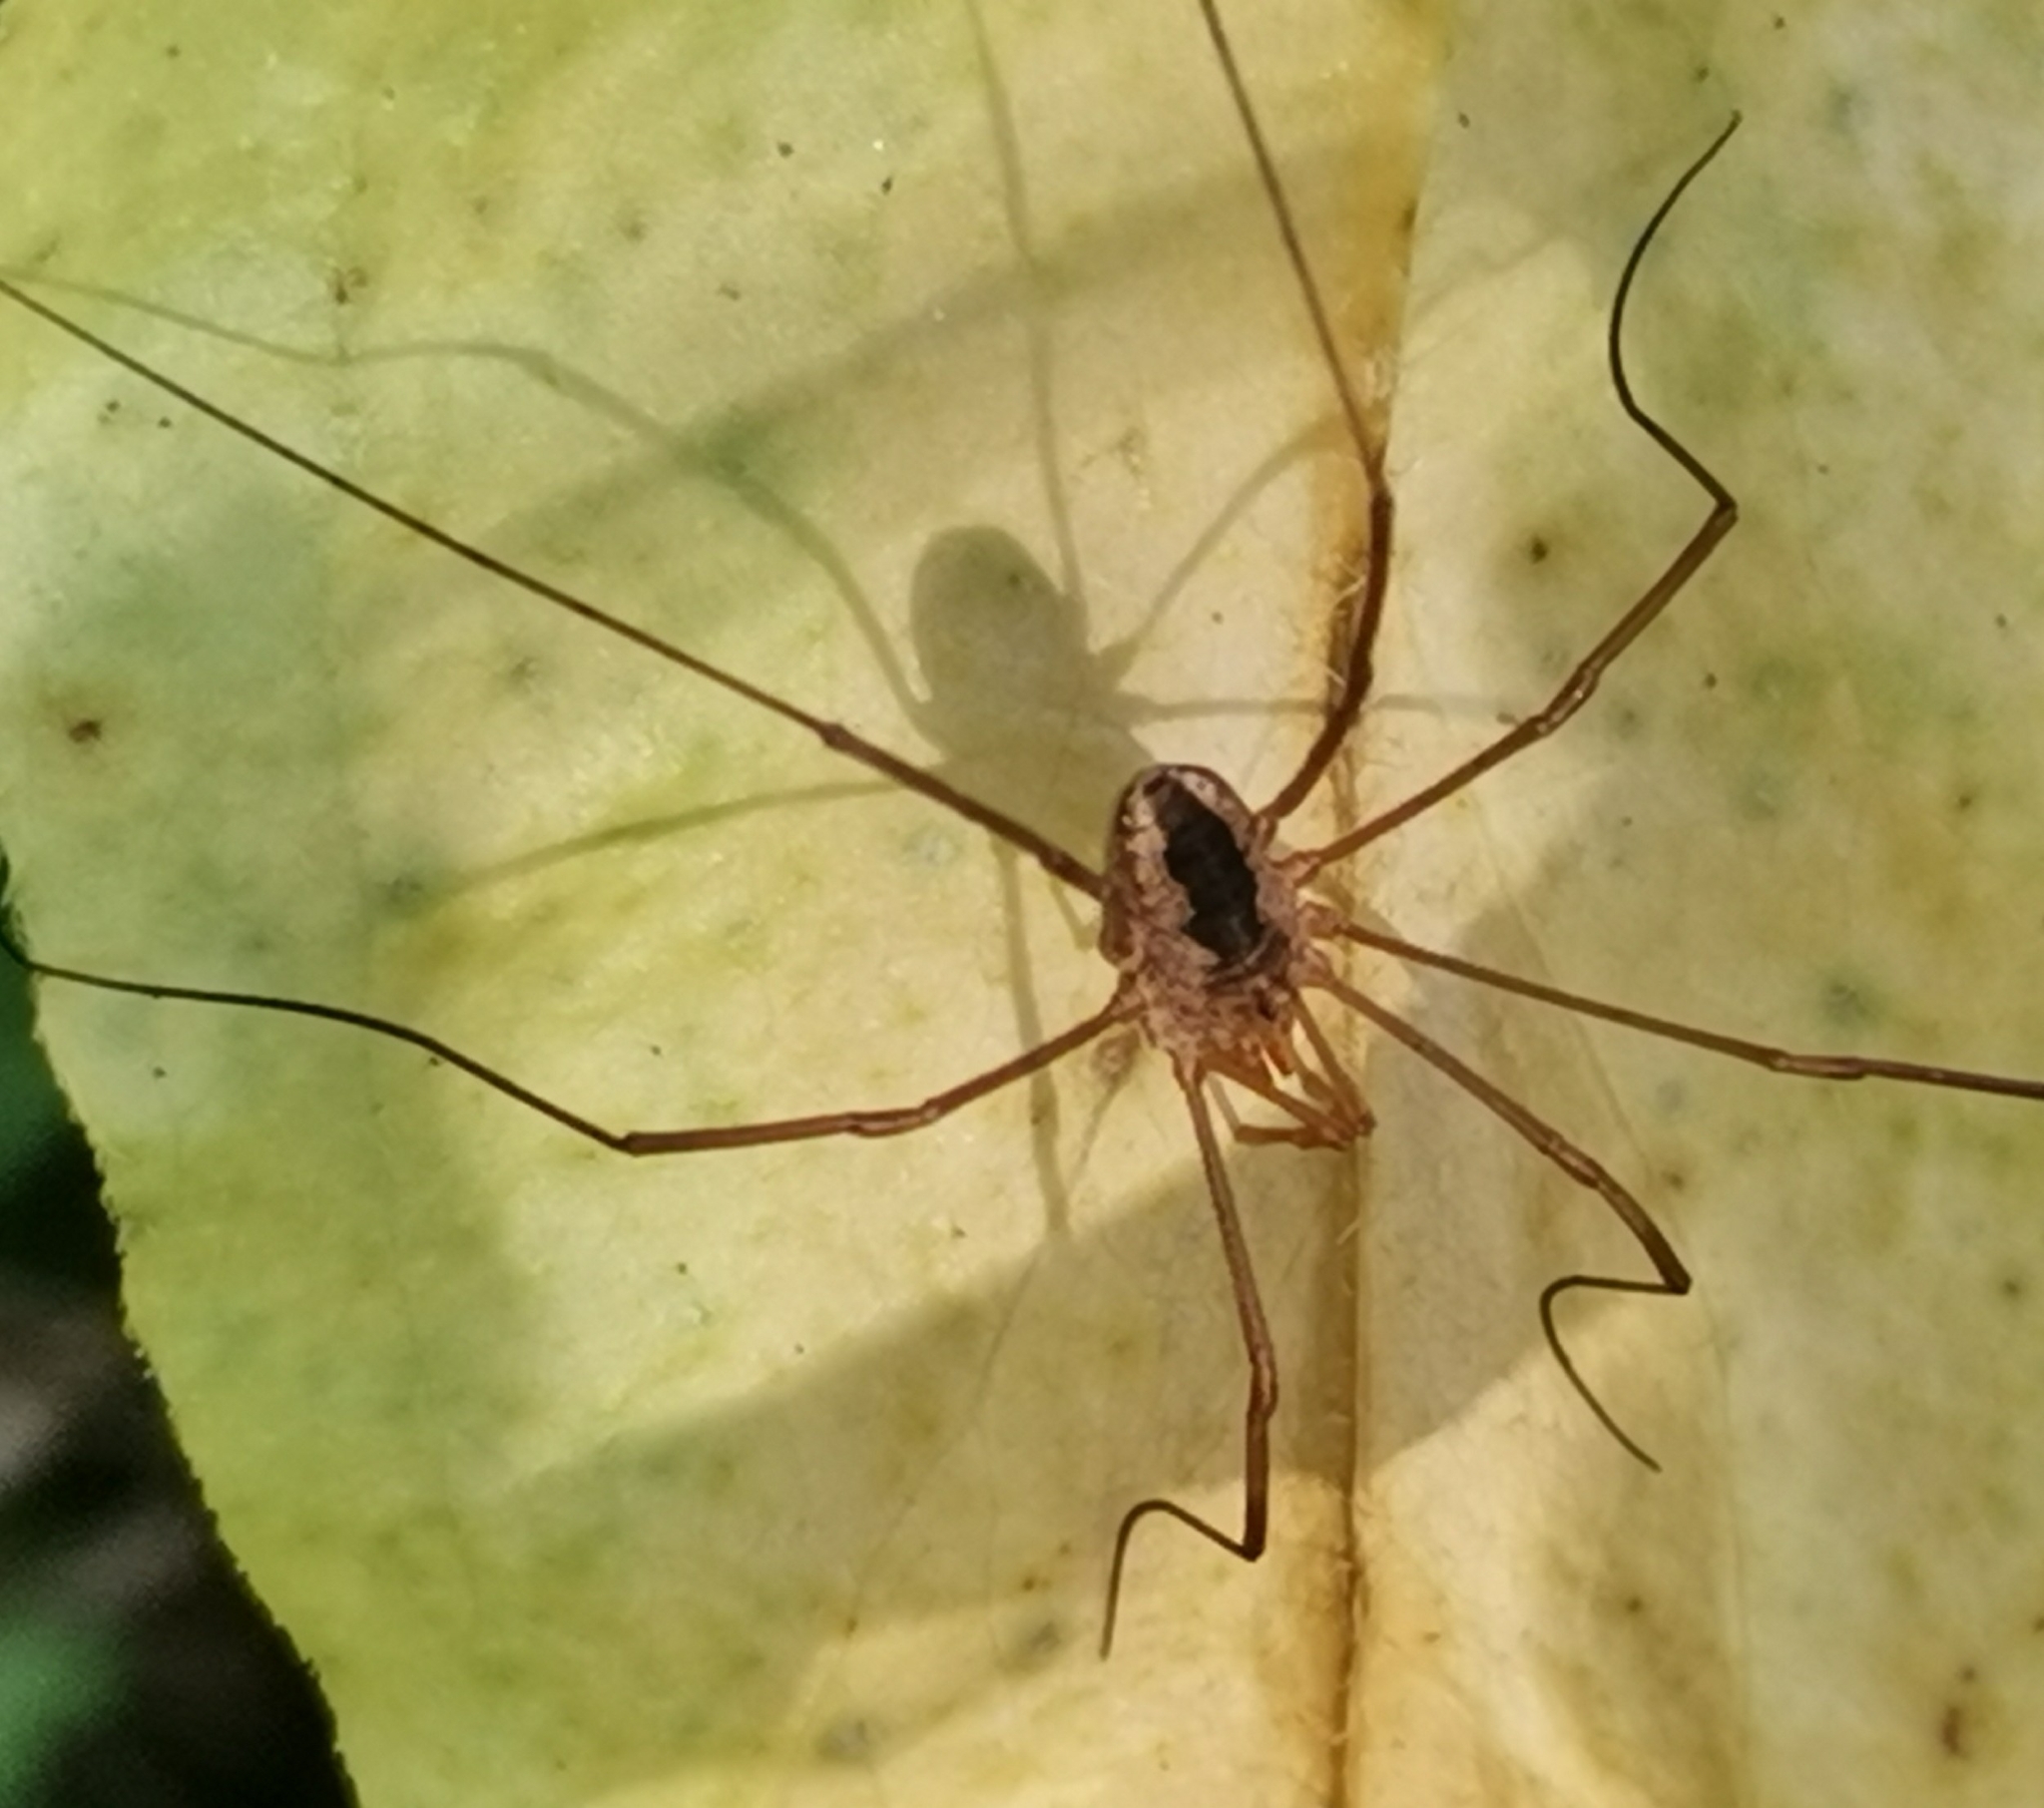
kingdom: Animalia
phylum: Arthropoda
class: Arachnida
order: Opiliones
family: Phalangiidae
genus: Phalangium
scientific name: Phalangium opilio
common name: Daddy longleg
